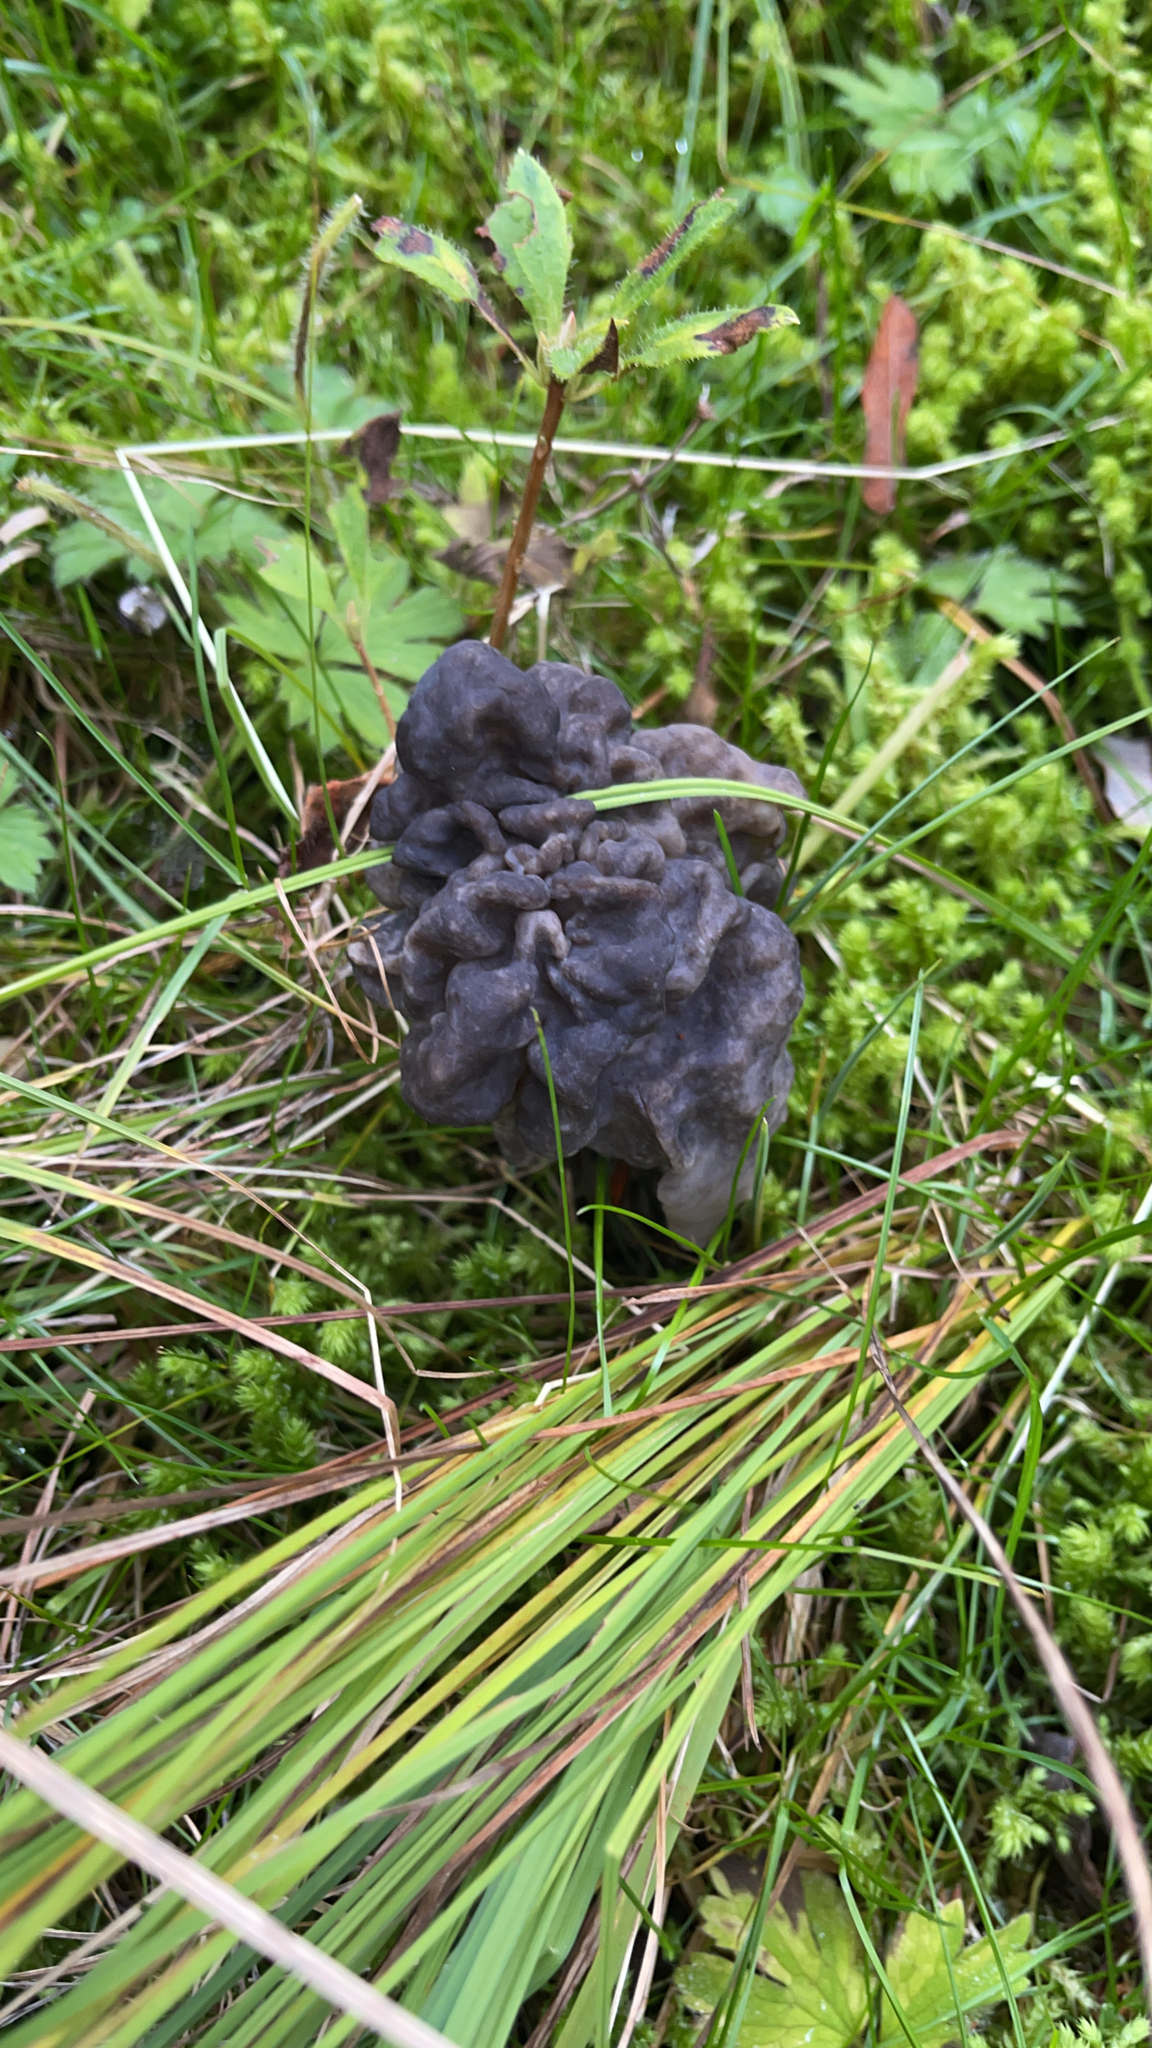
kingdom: Fungi
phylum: Ascomycota
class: Pezizomycetes
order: Pezizales
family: Helvellaceae
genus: Helvella
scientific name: Helvella vespertina
